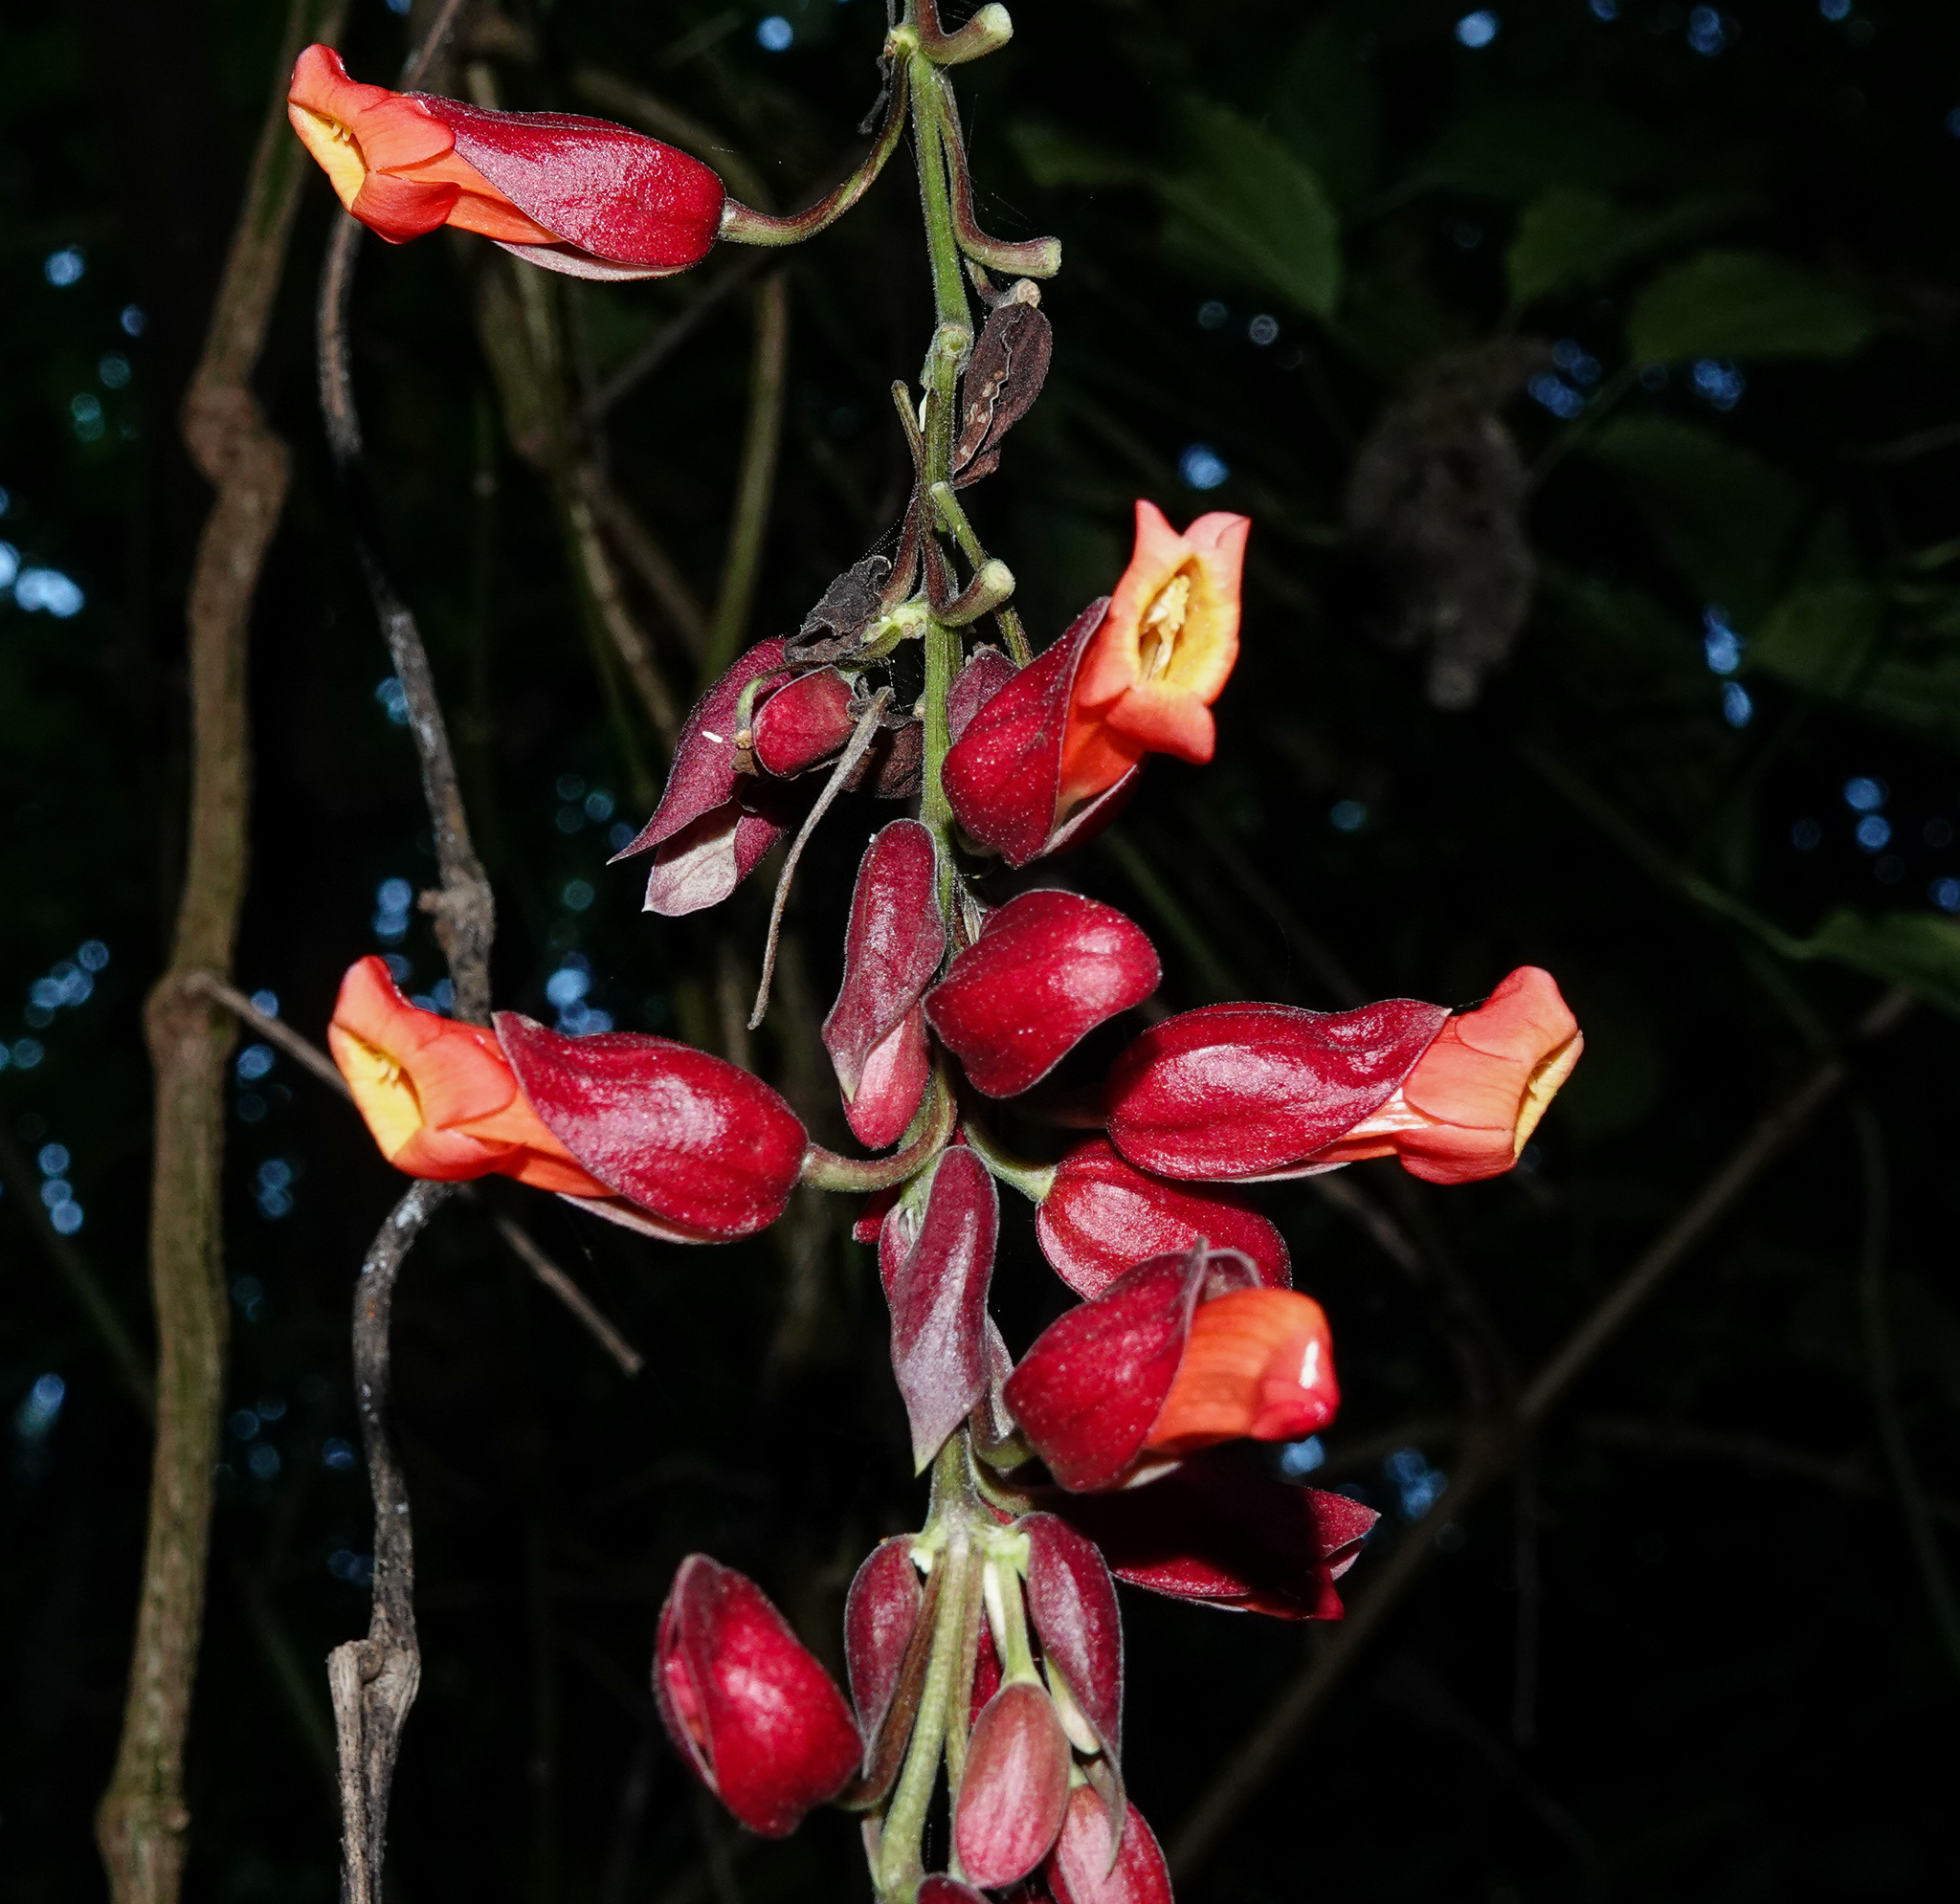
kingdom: Plantae
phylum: Tracheophyta
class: Magnoliopsida
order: Lamiales
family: Acanthaceae
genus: Thunbergia
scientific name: Thunbergia coccinea
